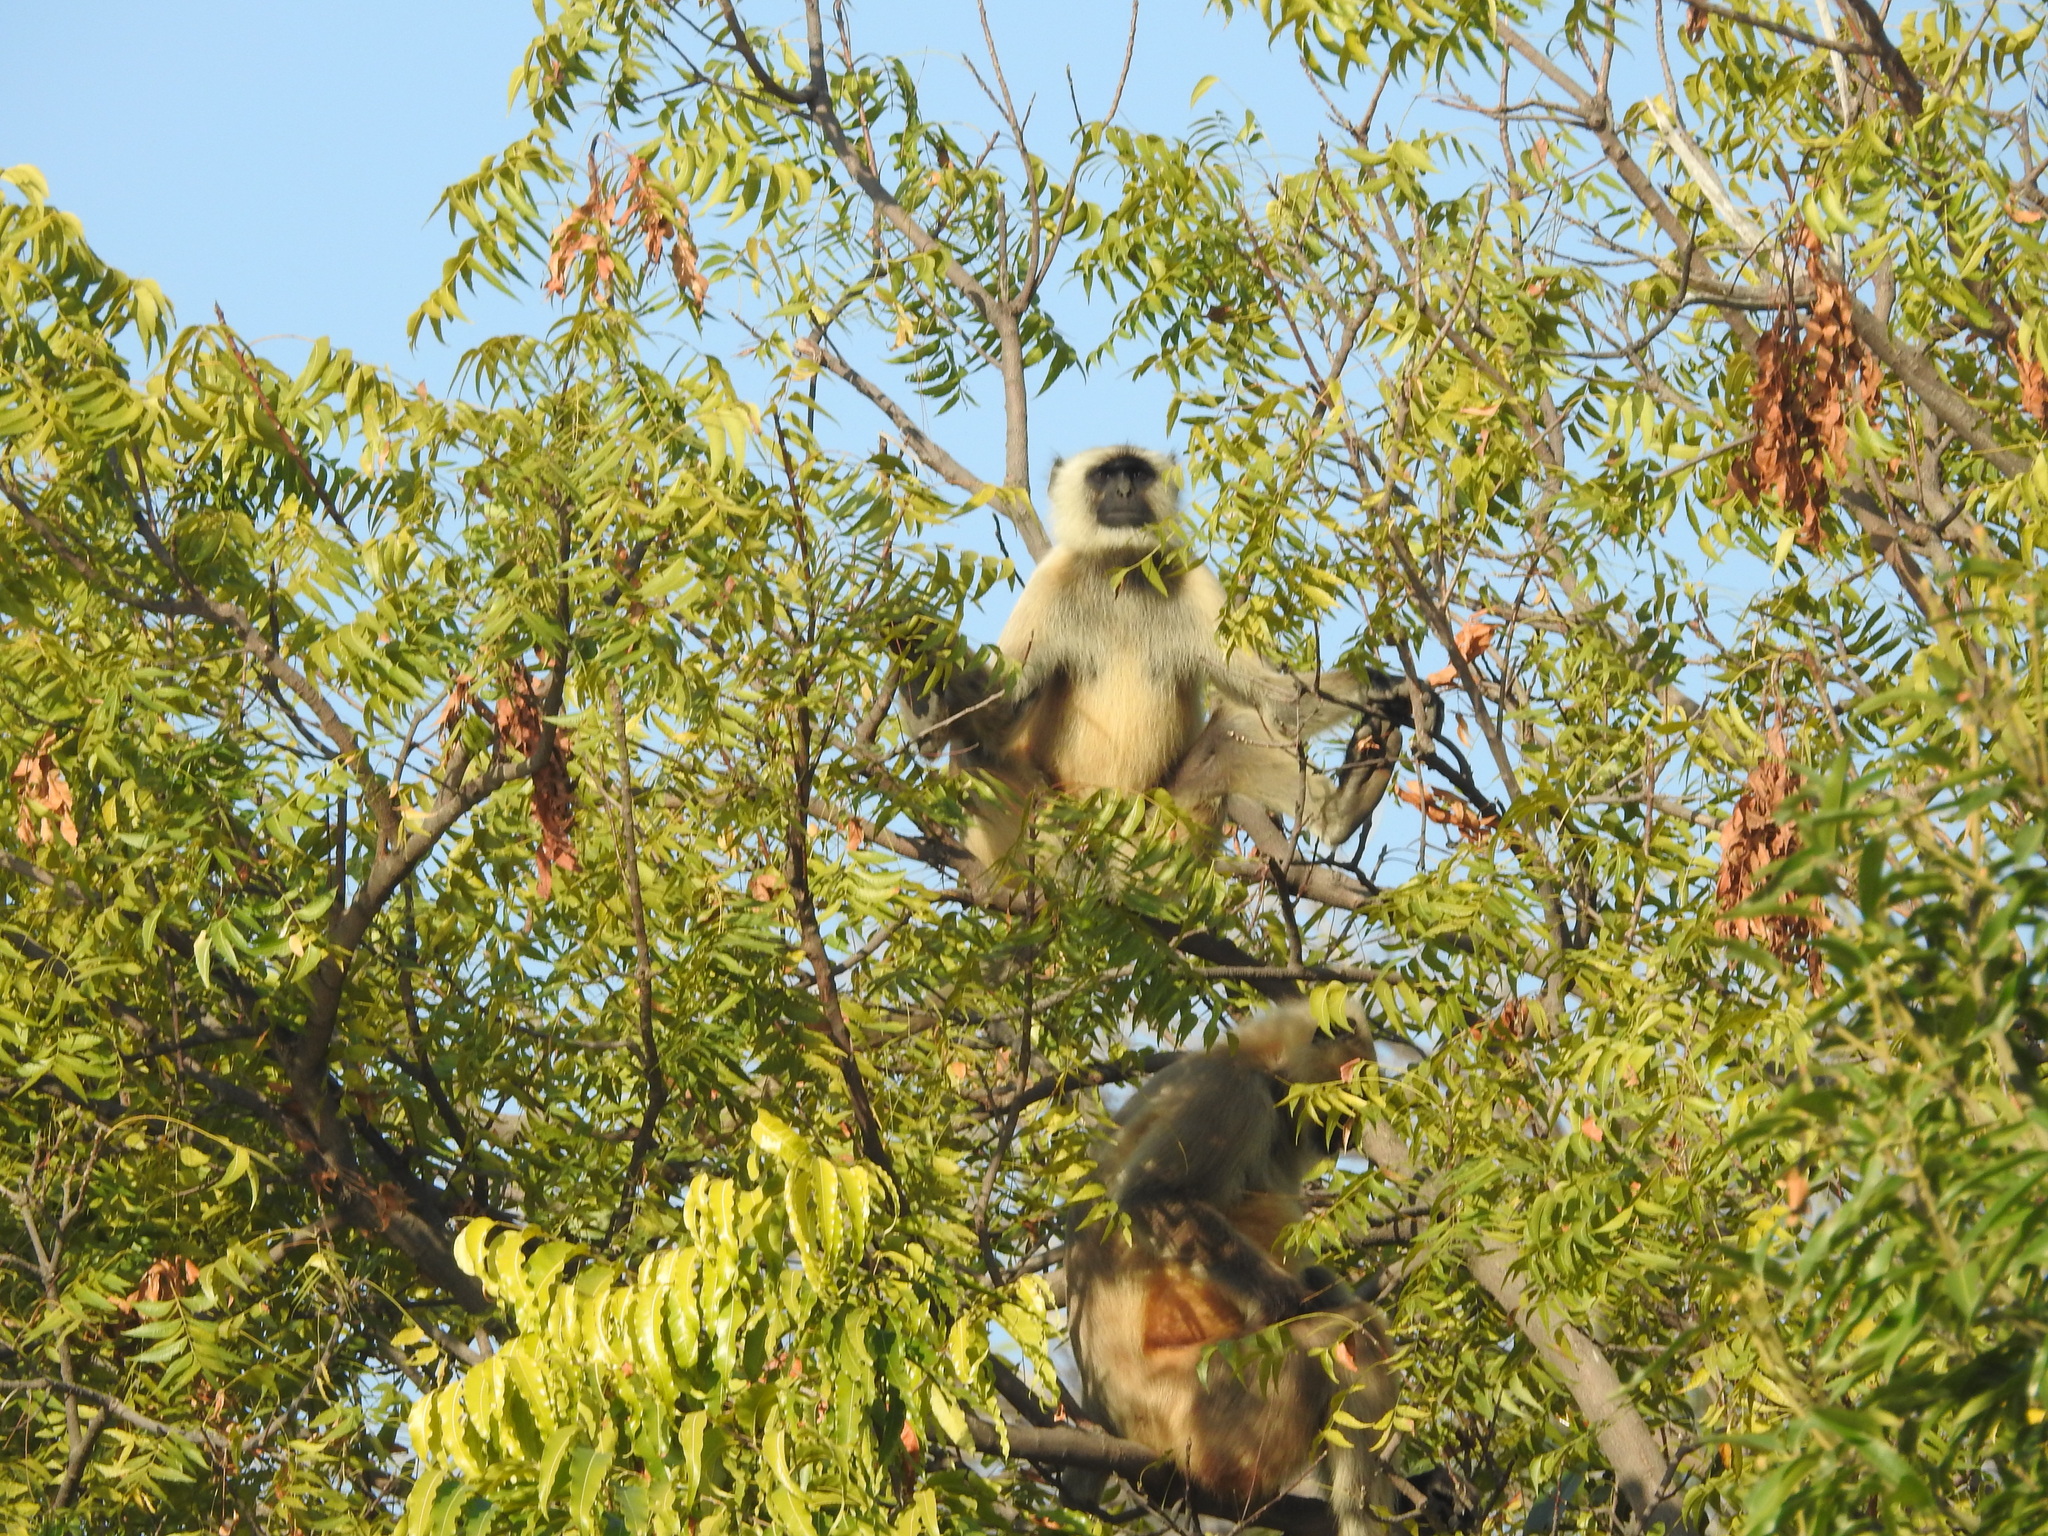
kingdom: Animalia
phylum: Chordata
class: Mammalia
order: Primates
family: Cercopithecidae
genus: Semnopithecus
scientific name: Semnopithecus entellus
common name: Northern plains gray langur
